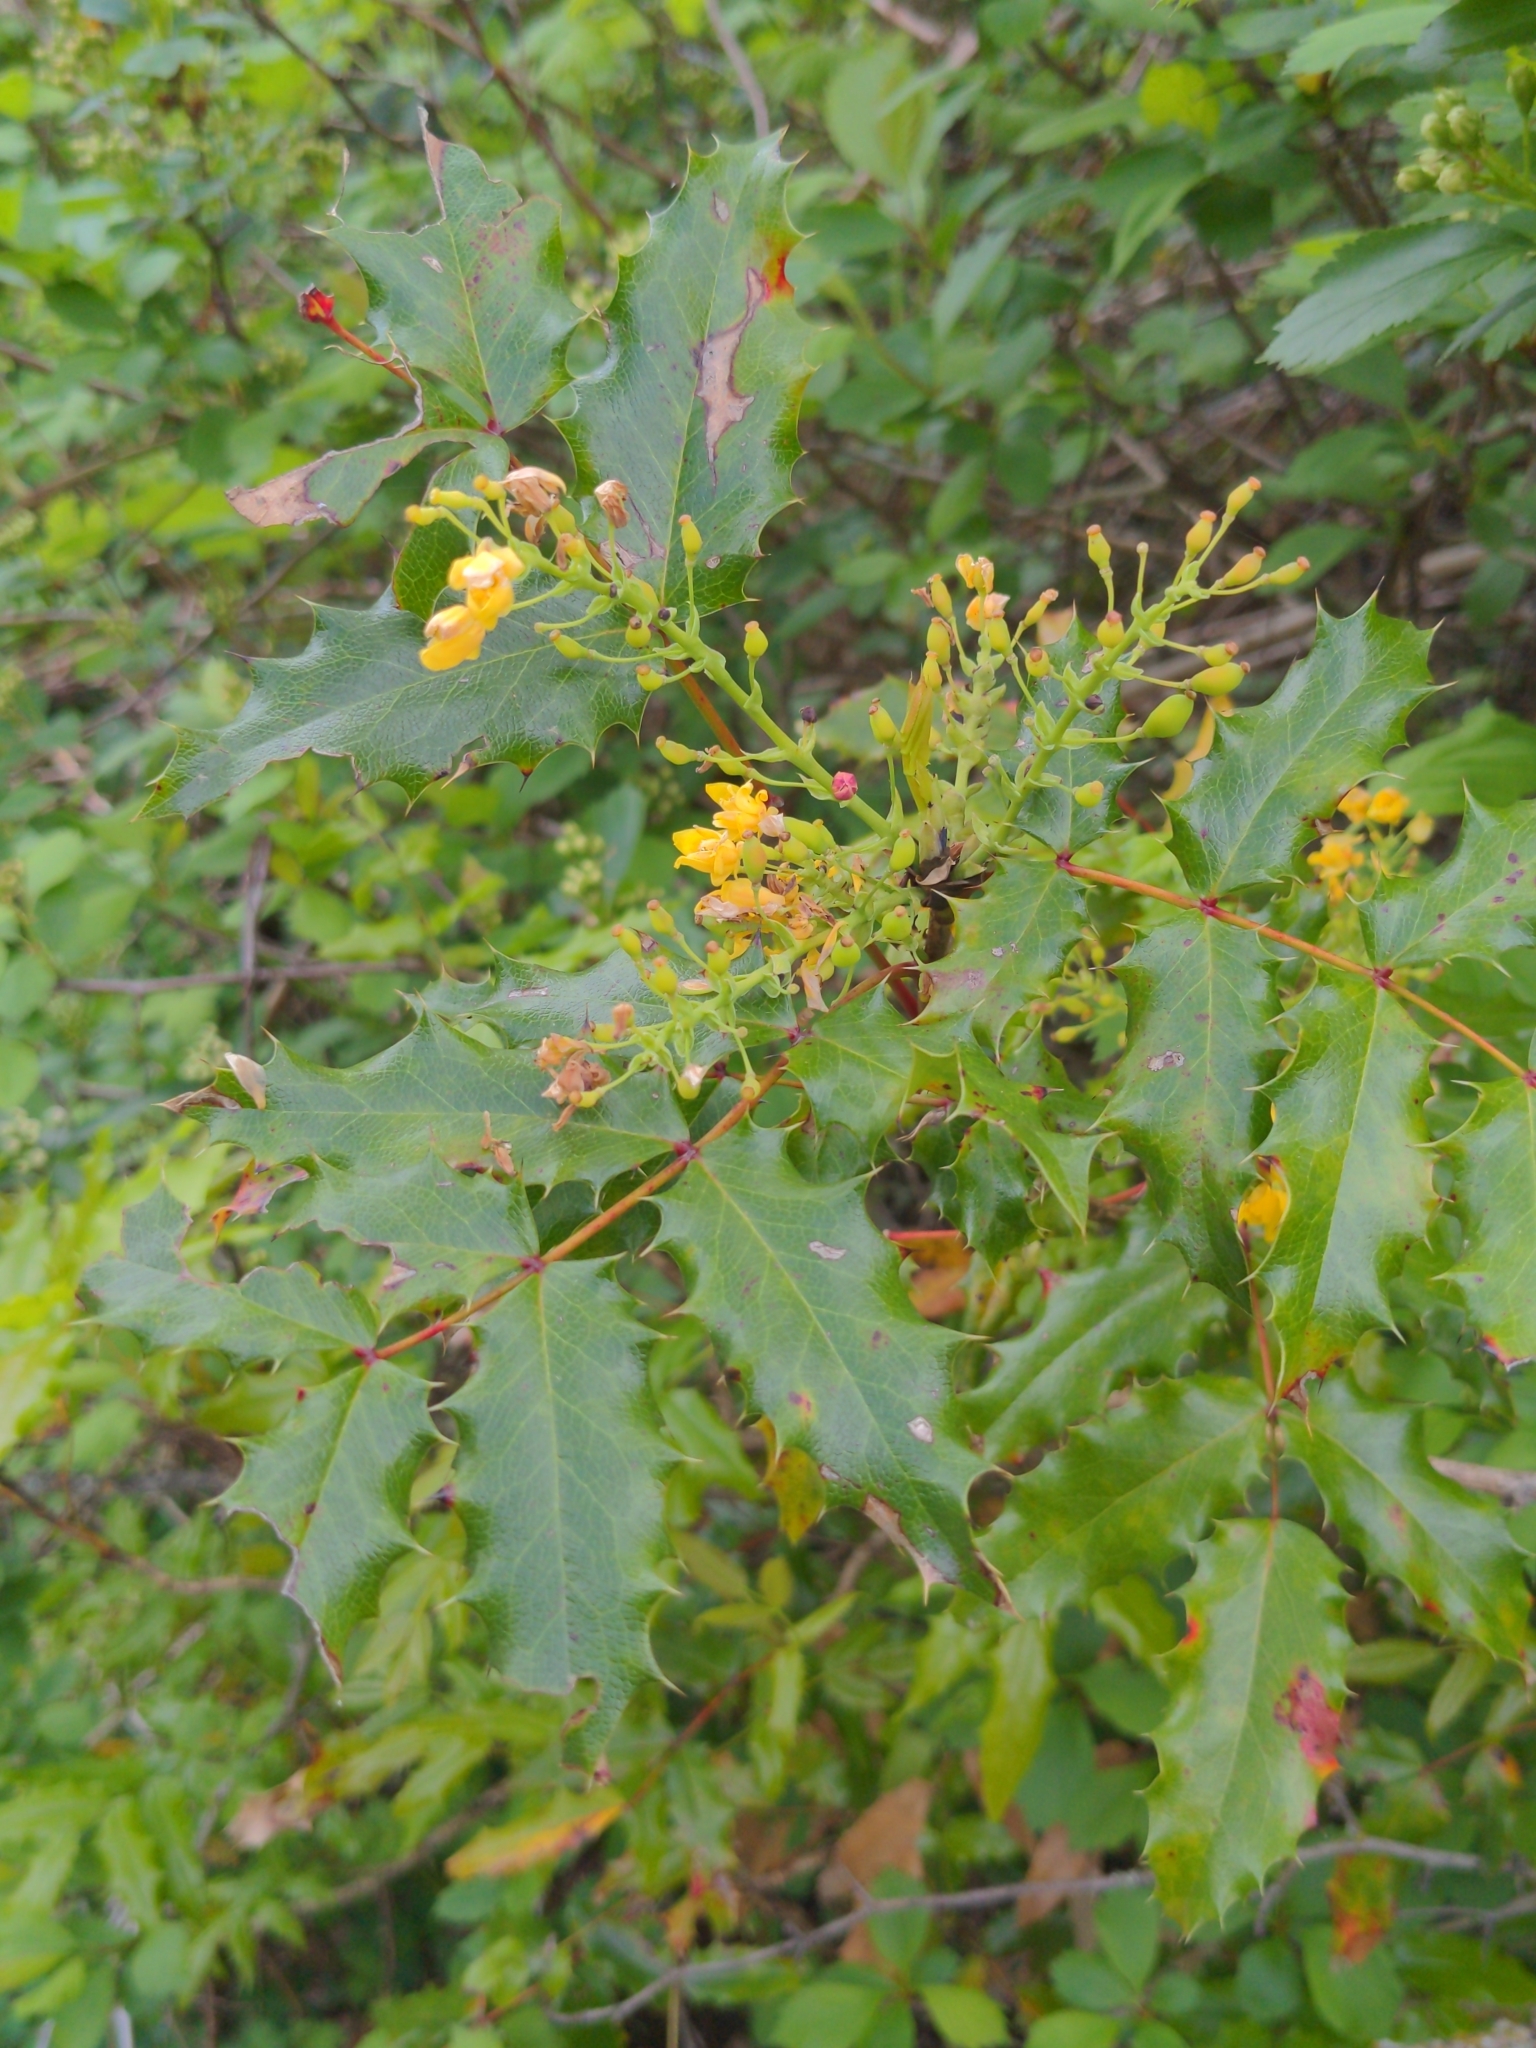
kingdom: Plantae
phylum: Tracheophyta
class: Magnoliopsida
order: Ranunculales
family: Berberidaceae
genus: Mahonia
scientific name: Mahonia aquifolium
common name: Oregon-grape
